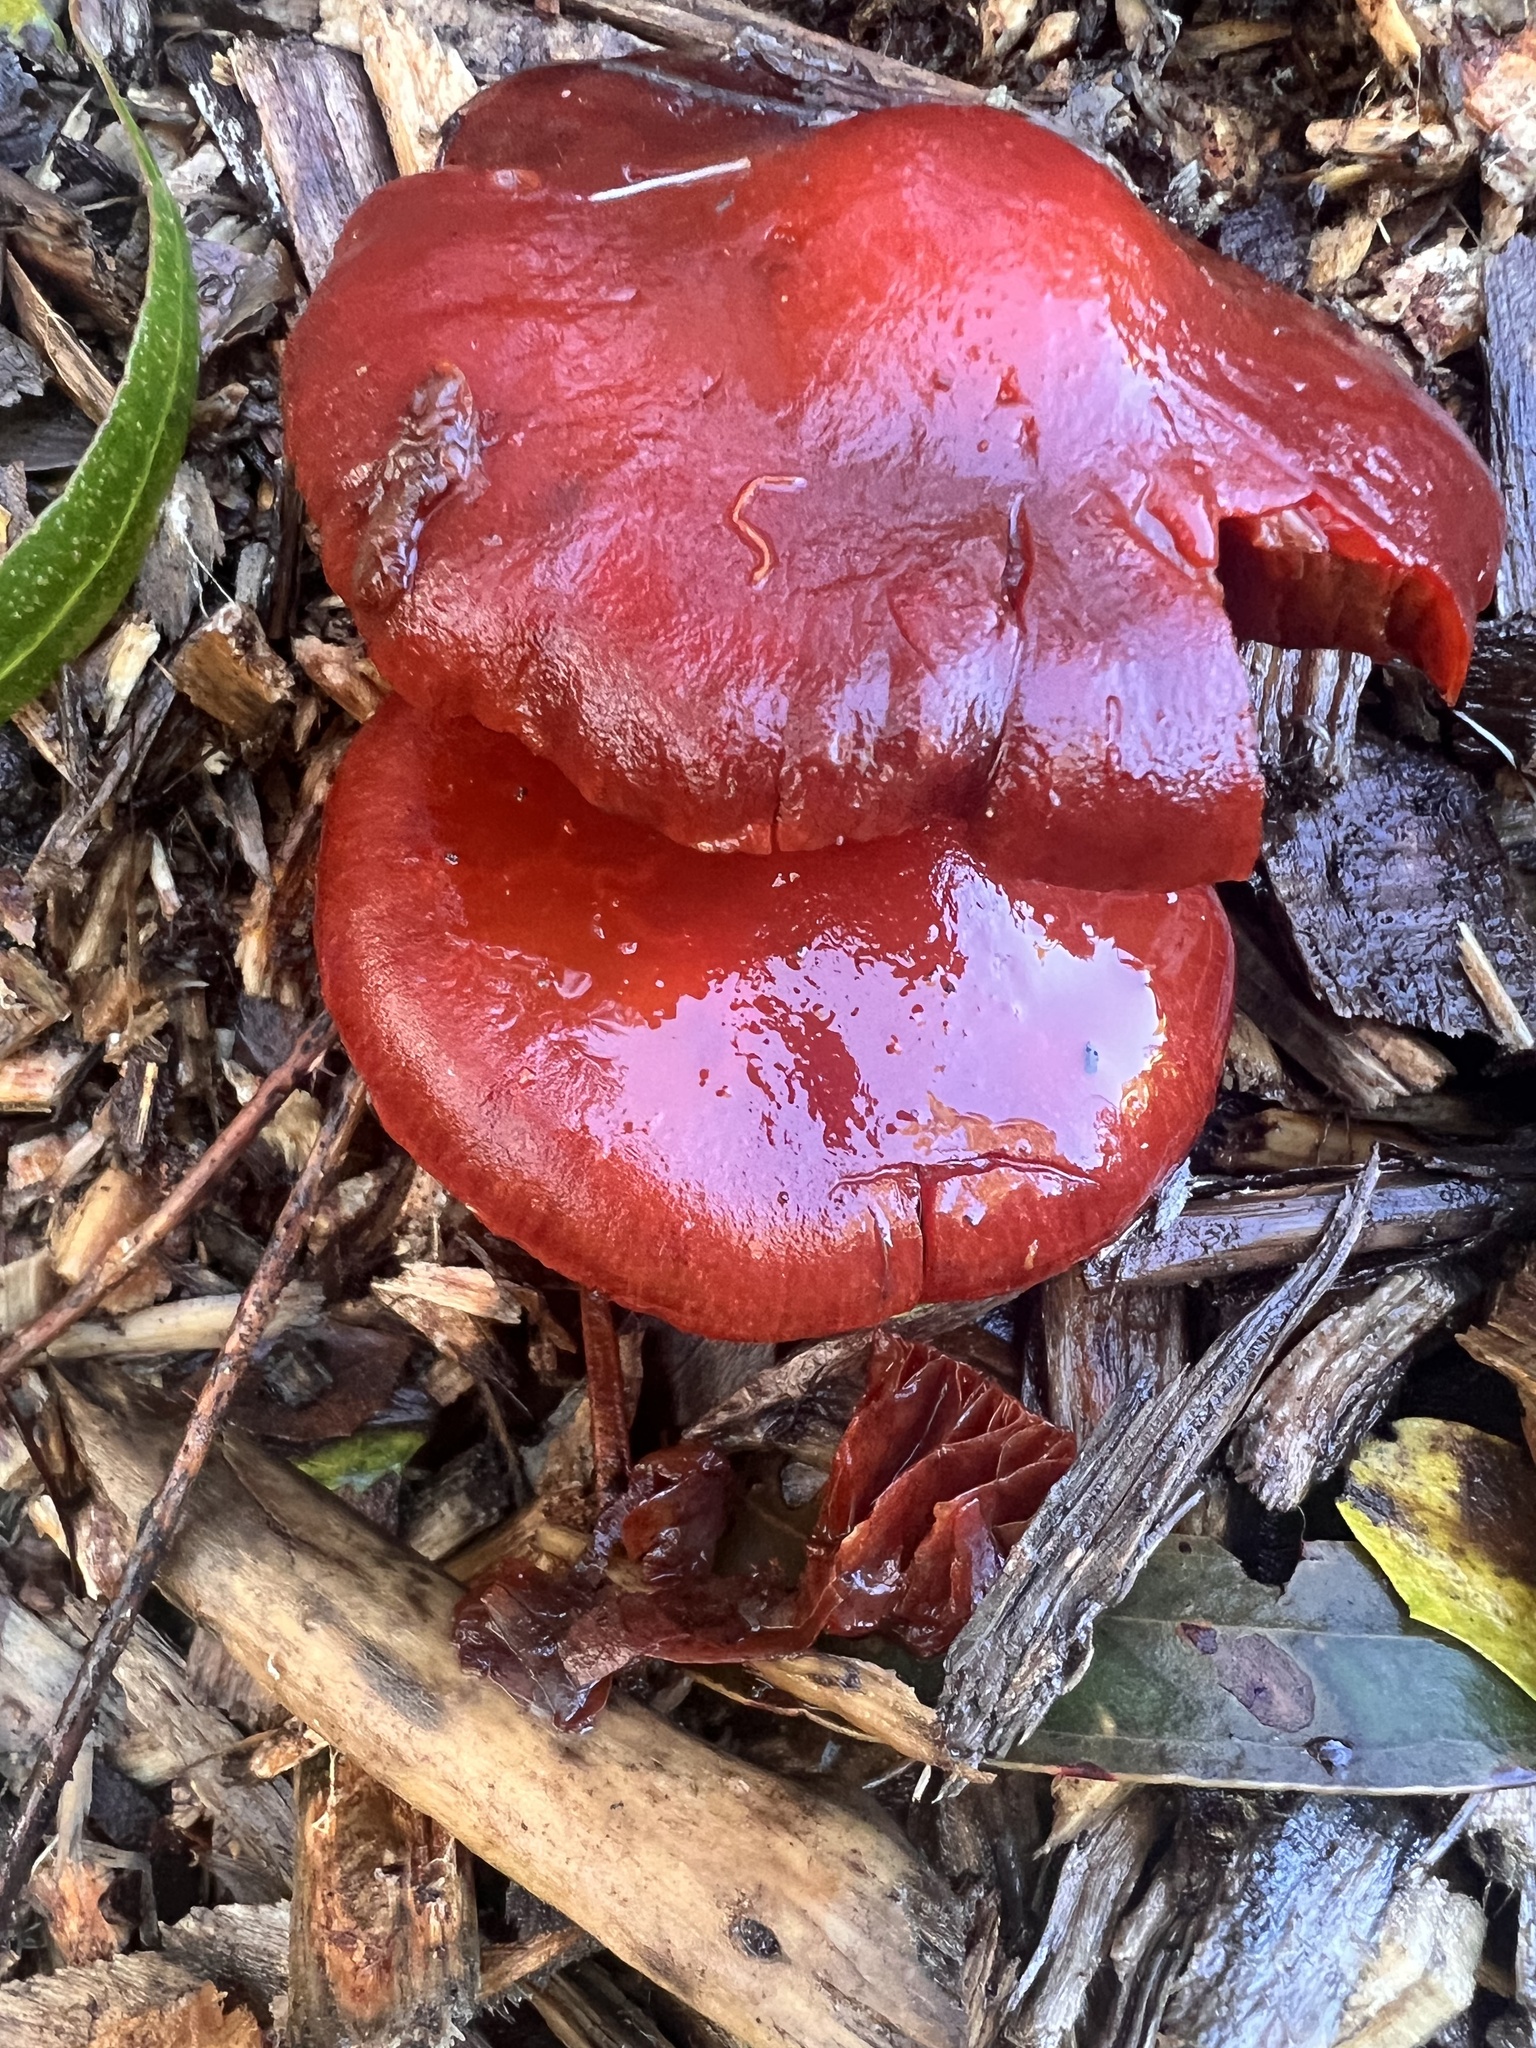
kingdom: Fungi
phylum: Basidiomycota
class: Agaricomycetes
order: Agaricales
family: Strophariaceae
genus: Leratiomyces
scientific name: Leratiomyces ceres
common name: Redlead roundhead
